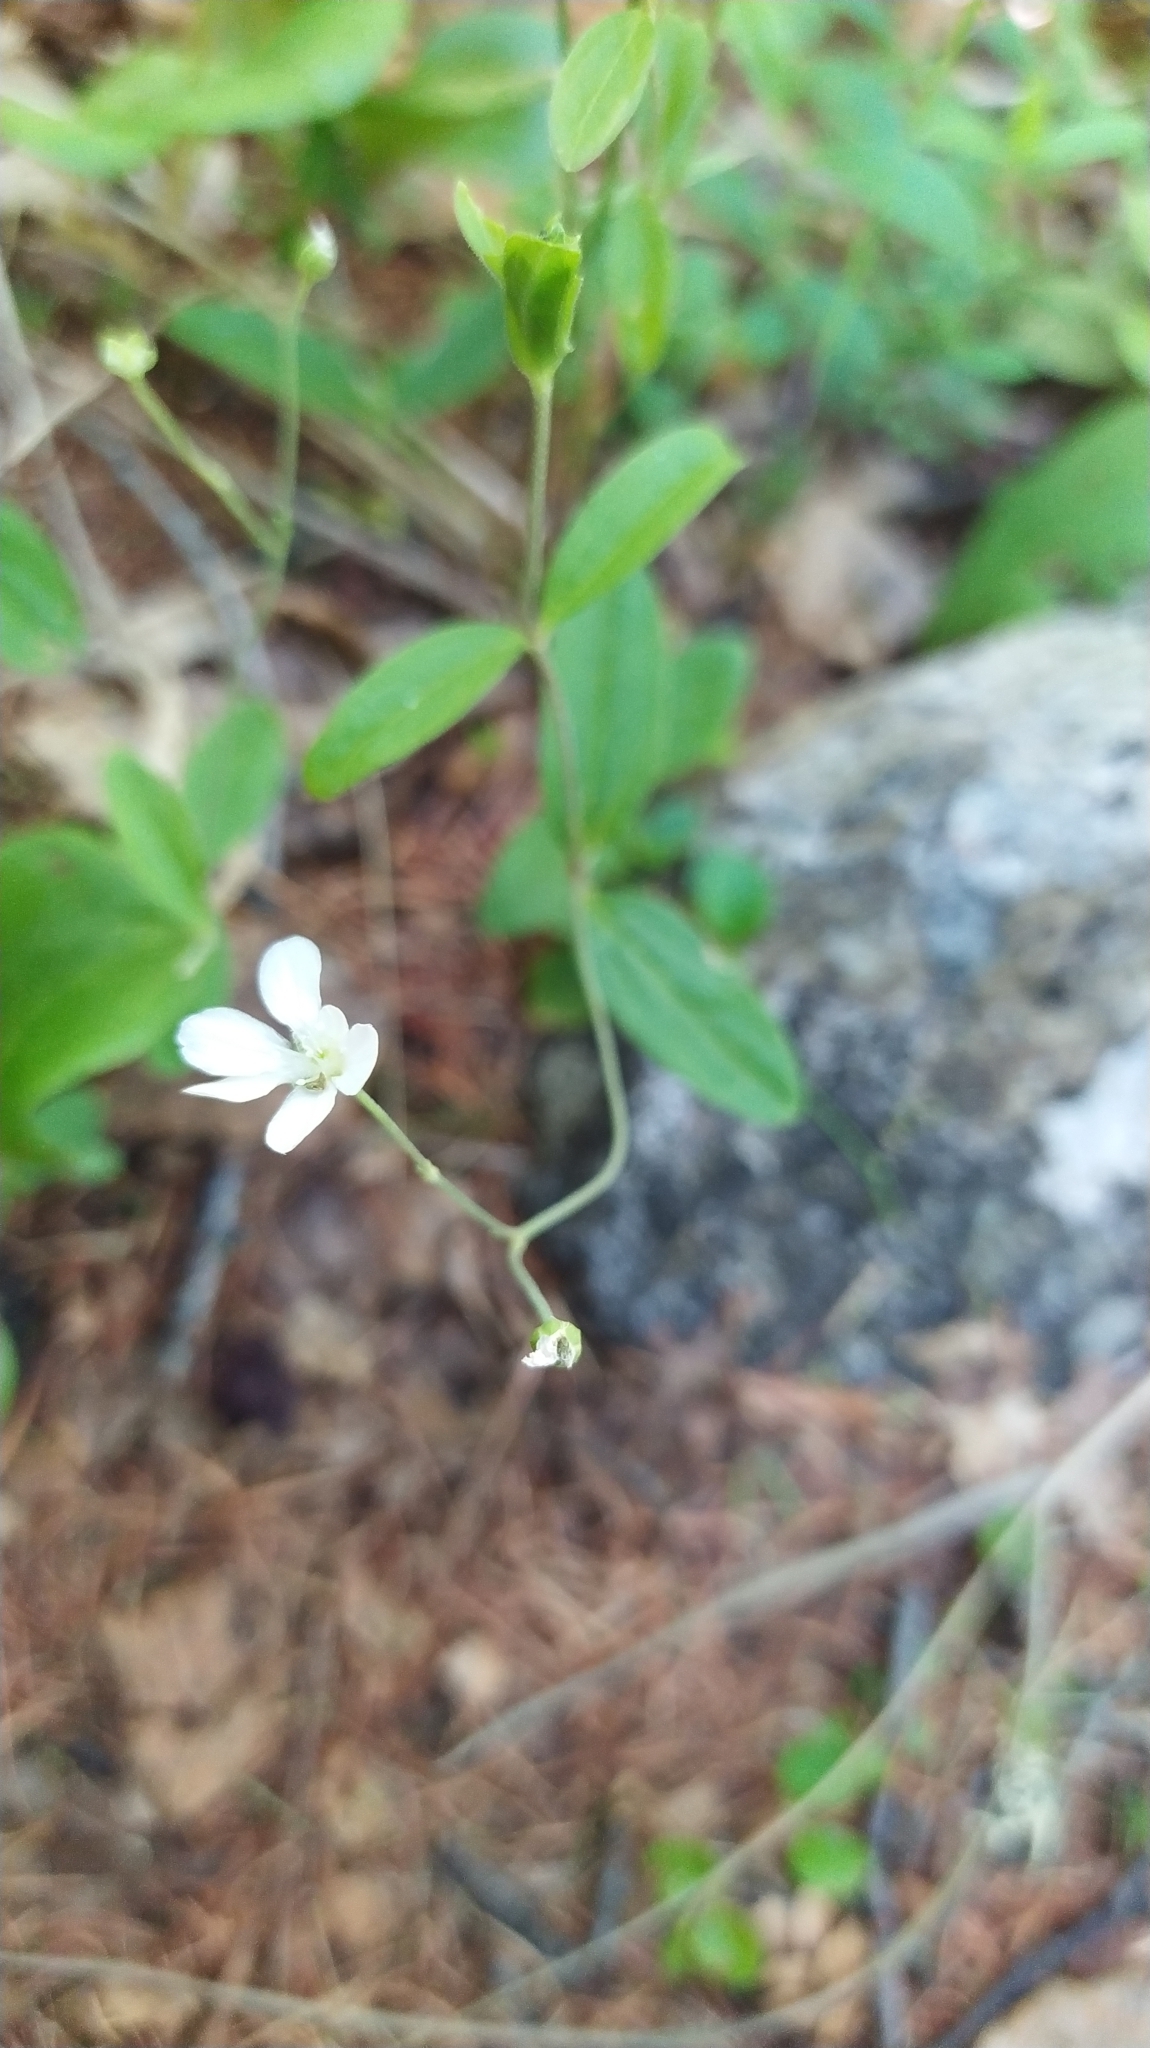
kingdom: Plantae
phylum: Tracheophyta
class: Magnoliopsida
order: Caryophyllales
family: Caryophyllaceae
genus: Moehringia
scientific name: Moehringia lateriflora
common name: Blunt-leaved sandwort
